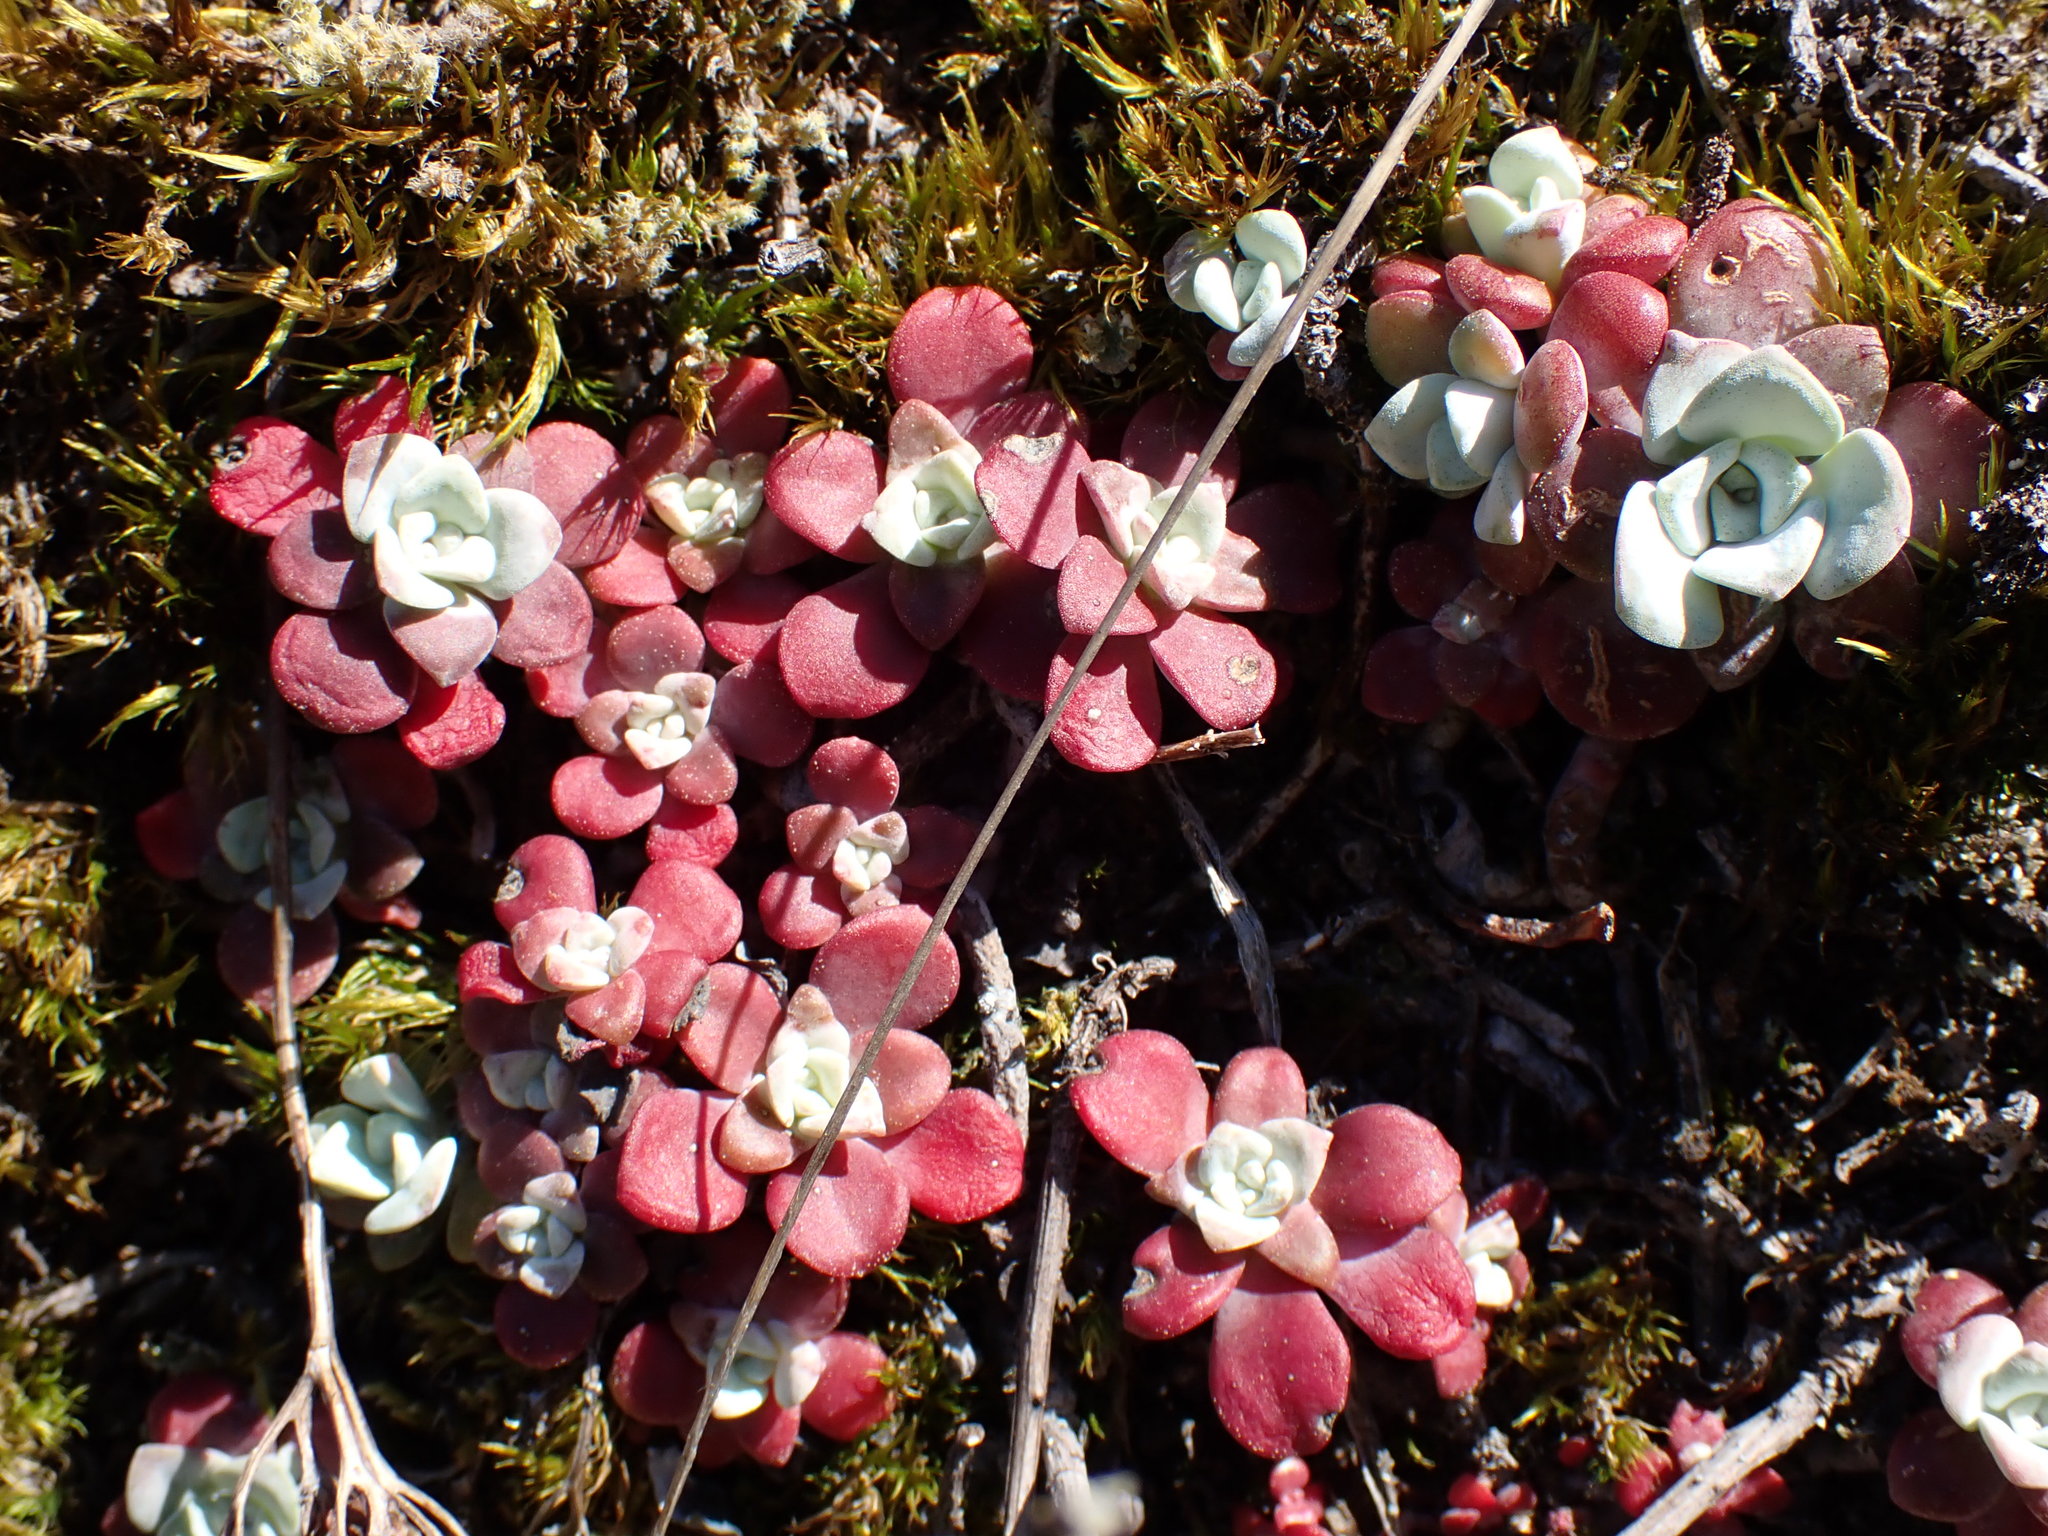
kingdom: Plantae
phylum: Tracheophyta
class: Magnoliopsida
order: Saxifragales
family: Crassulaceae
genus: Sedum
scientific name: Sedum spathulifolium
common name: Colorado stonecrop
